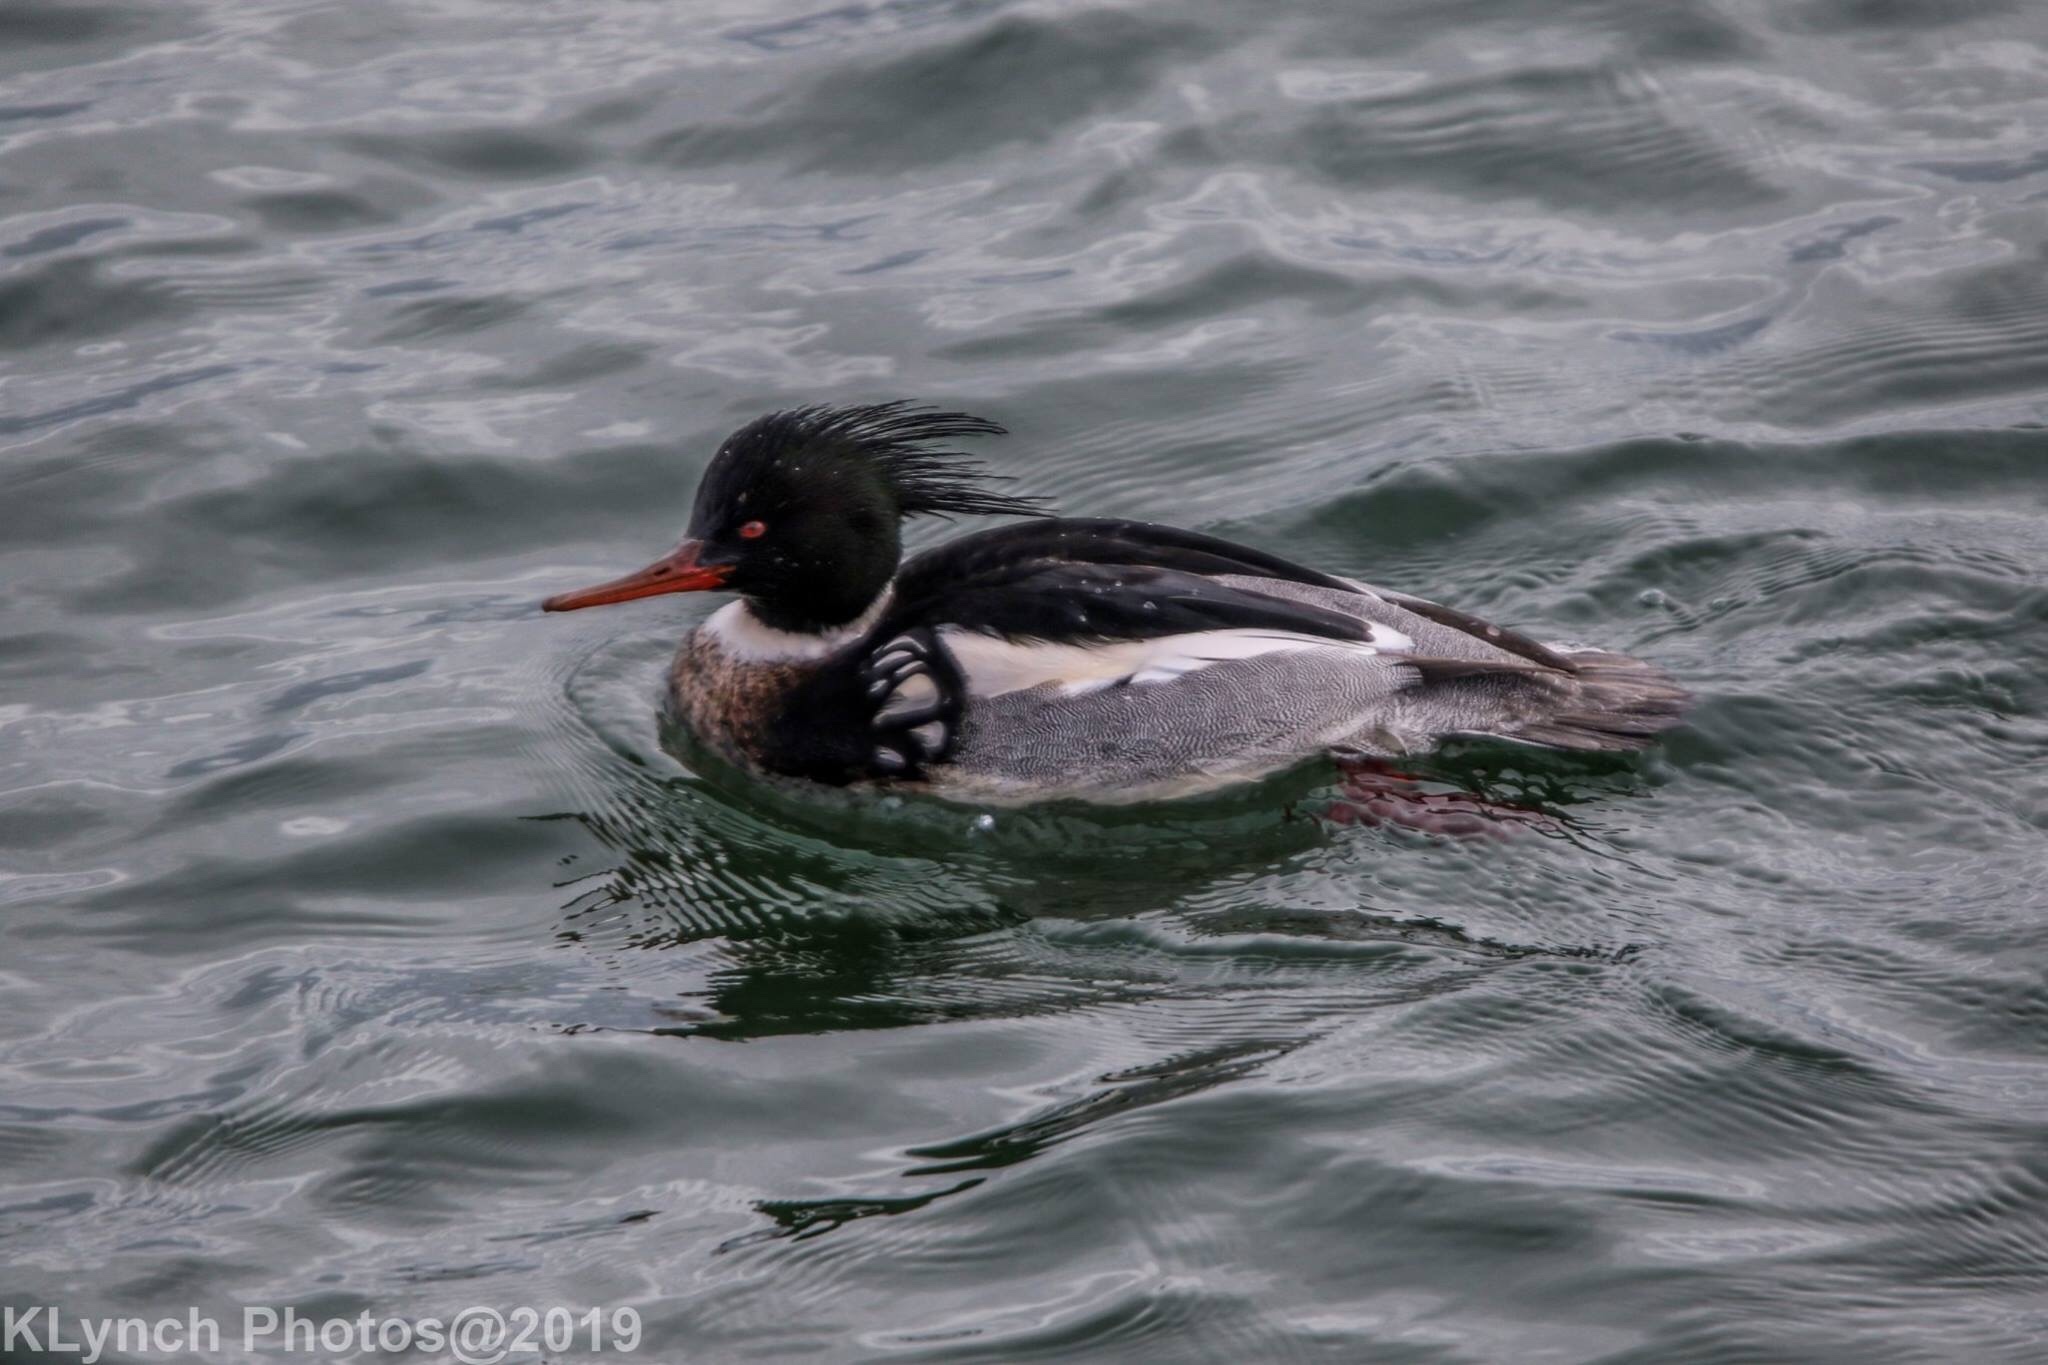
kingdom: Animalia
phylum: Chordata
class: Aves
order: Anseriformes
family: Anatidae
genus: Mergus
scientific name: Mergus serrator
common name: Red-breasted merganser
